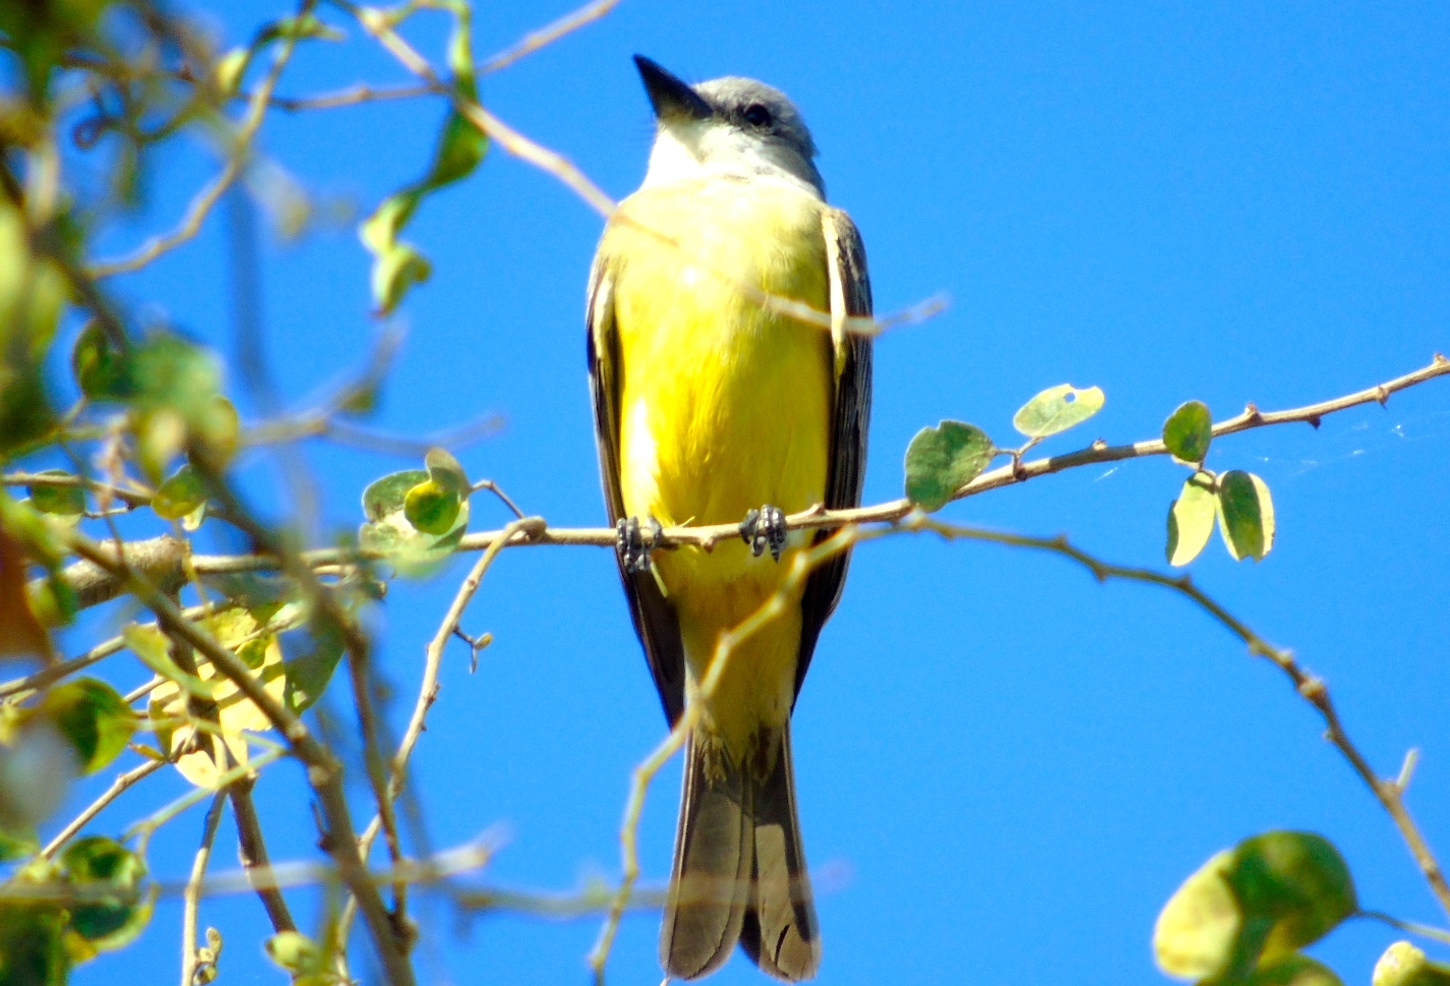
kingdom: Animalia
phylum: Chordata
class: Aves
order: Passeriformes
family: Tyrannidae
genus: Tyrannus
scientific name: Tyrannus melancholicus
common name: Tropical kingbird
